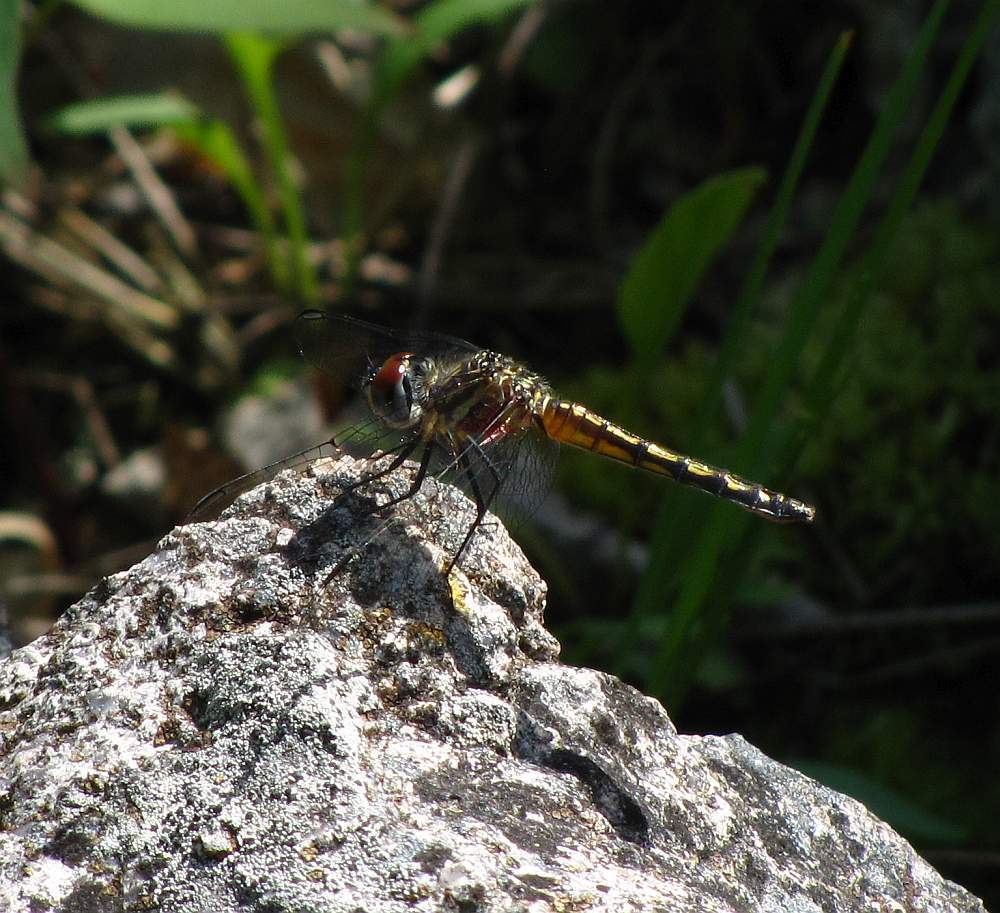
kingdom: Animalia
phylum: Arthropoda
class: Insecta
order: Odonata
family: Libellulidae
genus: Pachydiplax
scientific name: Pachydiplax longipennis
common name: Blue dasher
